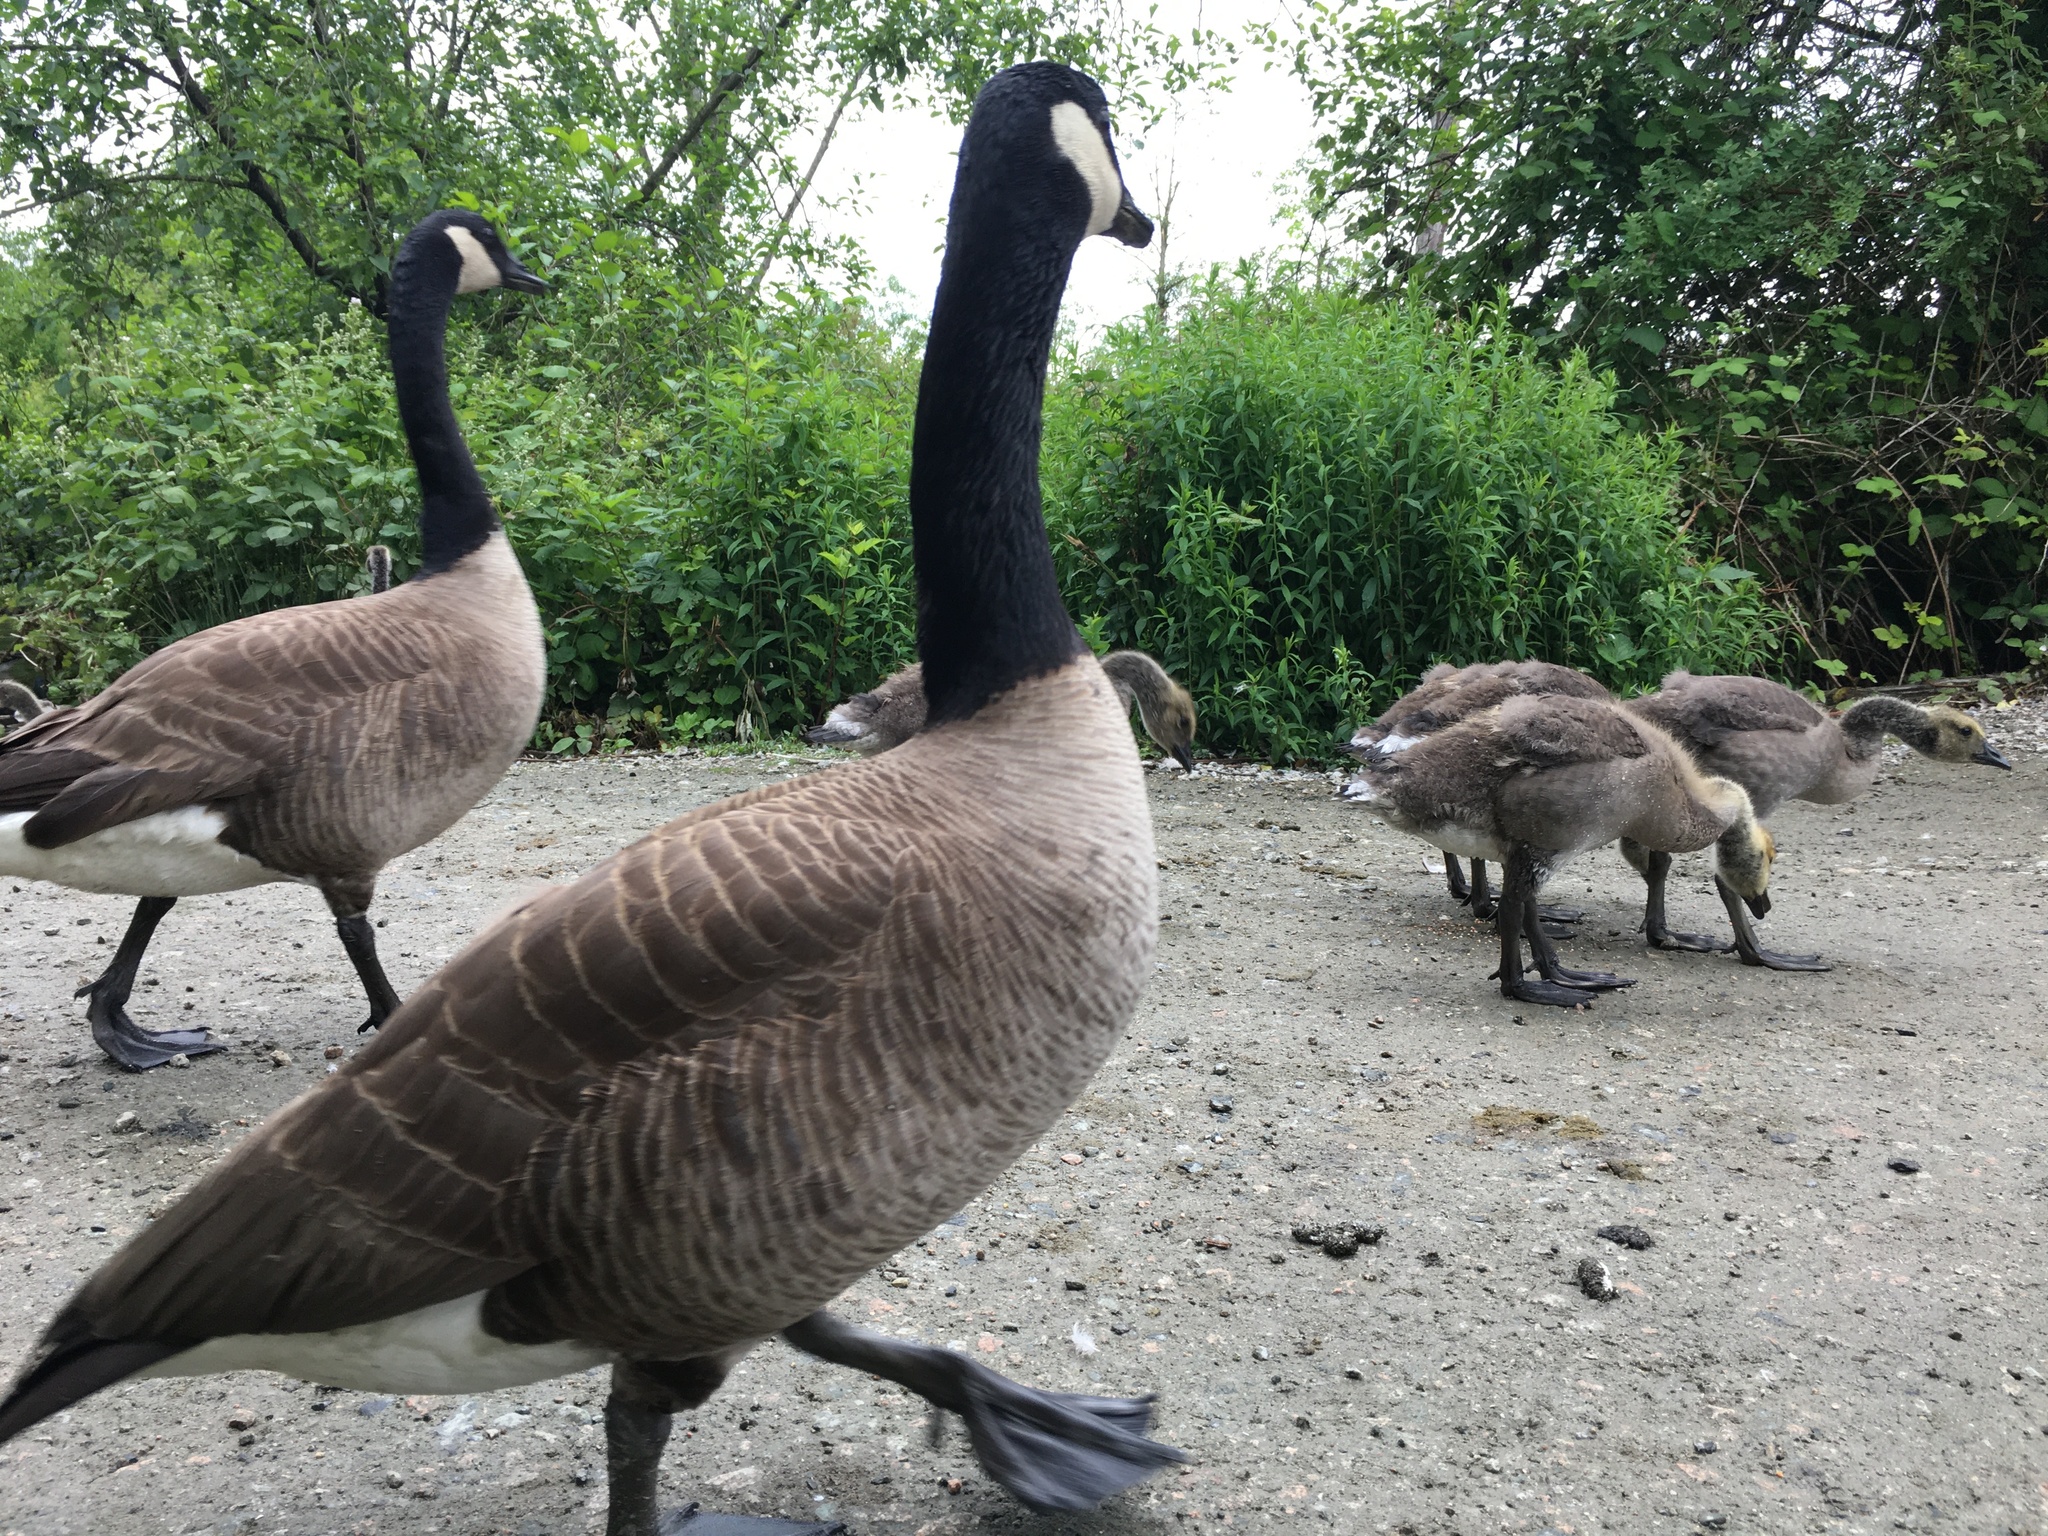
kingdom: Animalia
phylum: Chordata
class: Aves
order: Anseriformes
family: Anatidae
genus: Branta
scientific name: Branta canadensis
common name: Canada goose
